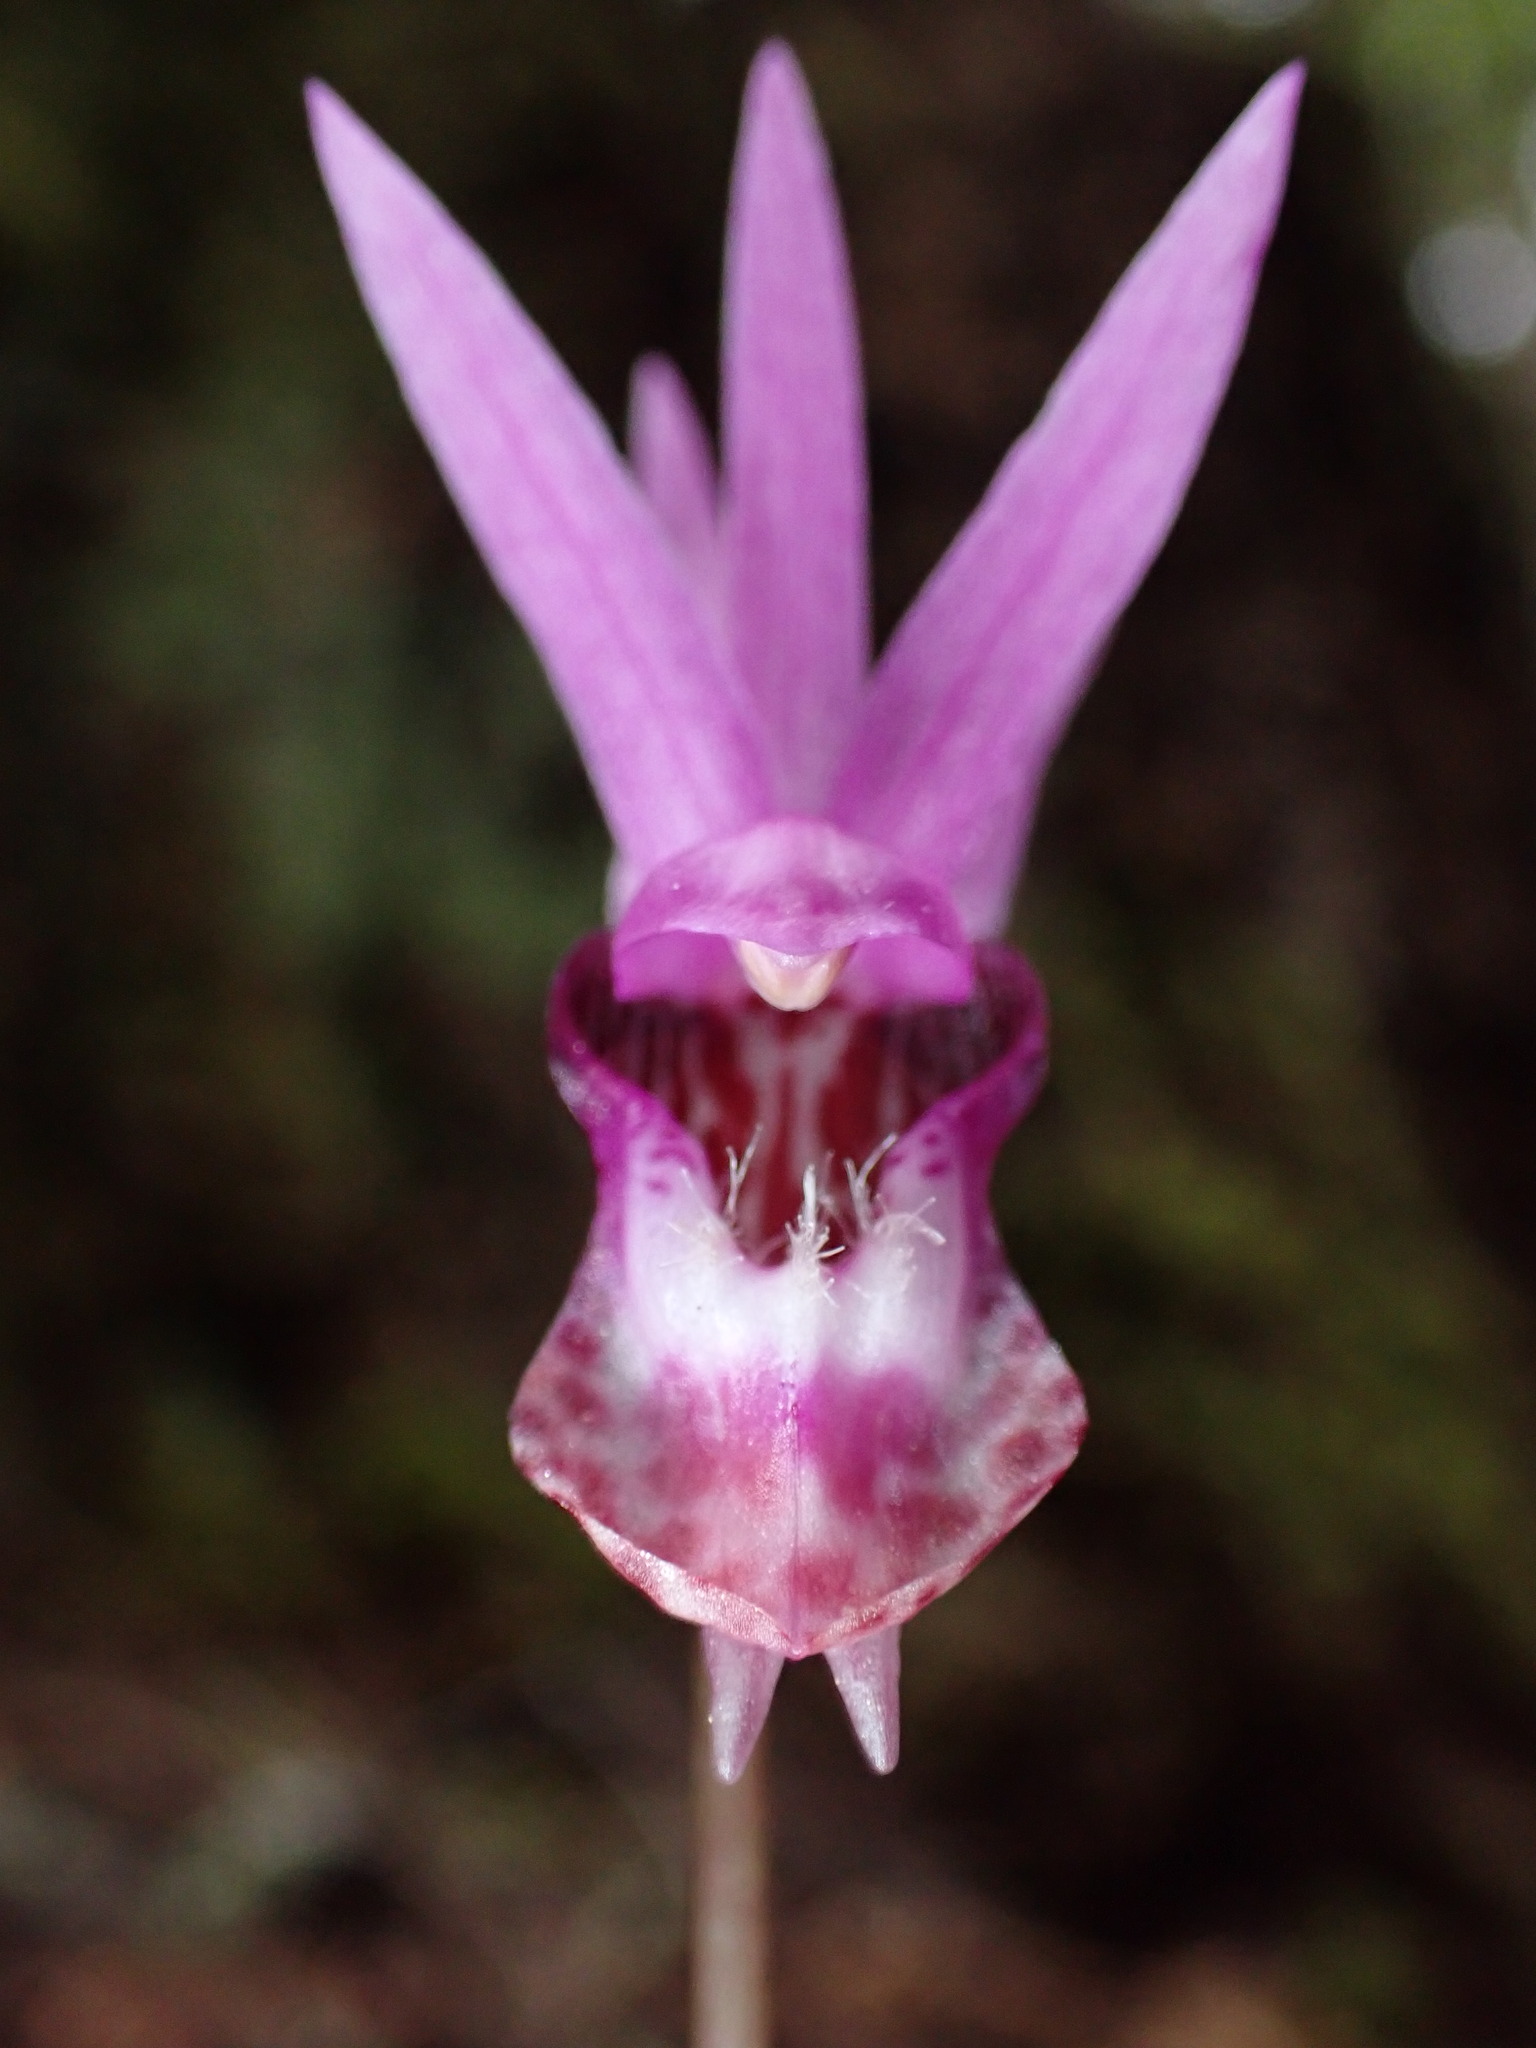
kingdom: Plantae
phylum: Tracheophyta
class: Liliopsida
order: Asparagales
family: Orchidaceae
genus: Calypso
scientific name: Calypso bulbosa
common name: Calypso
